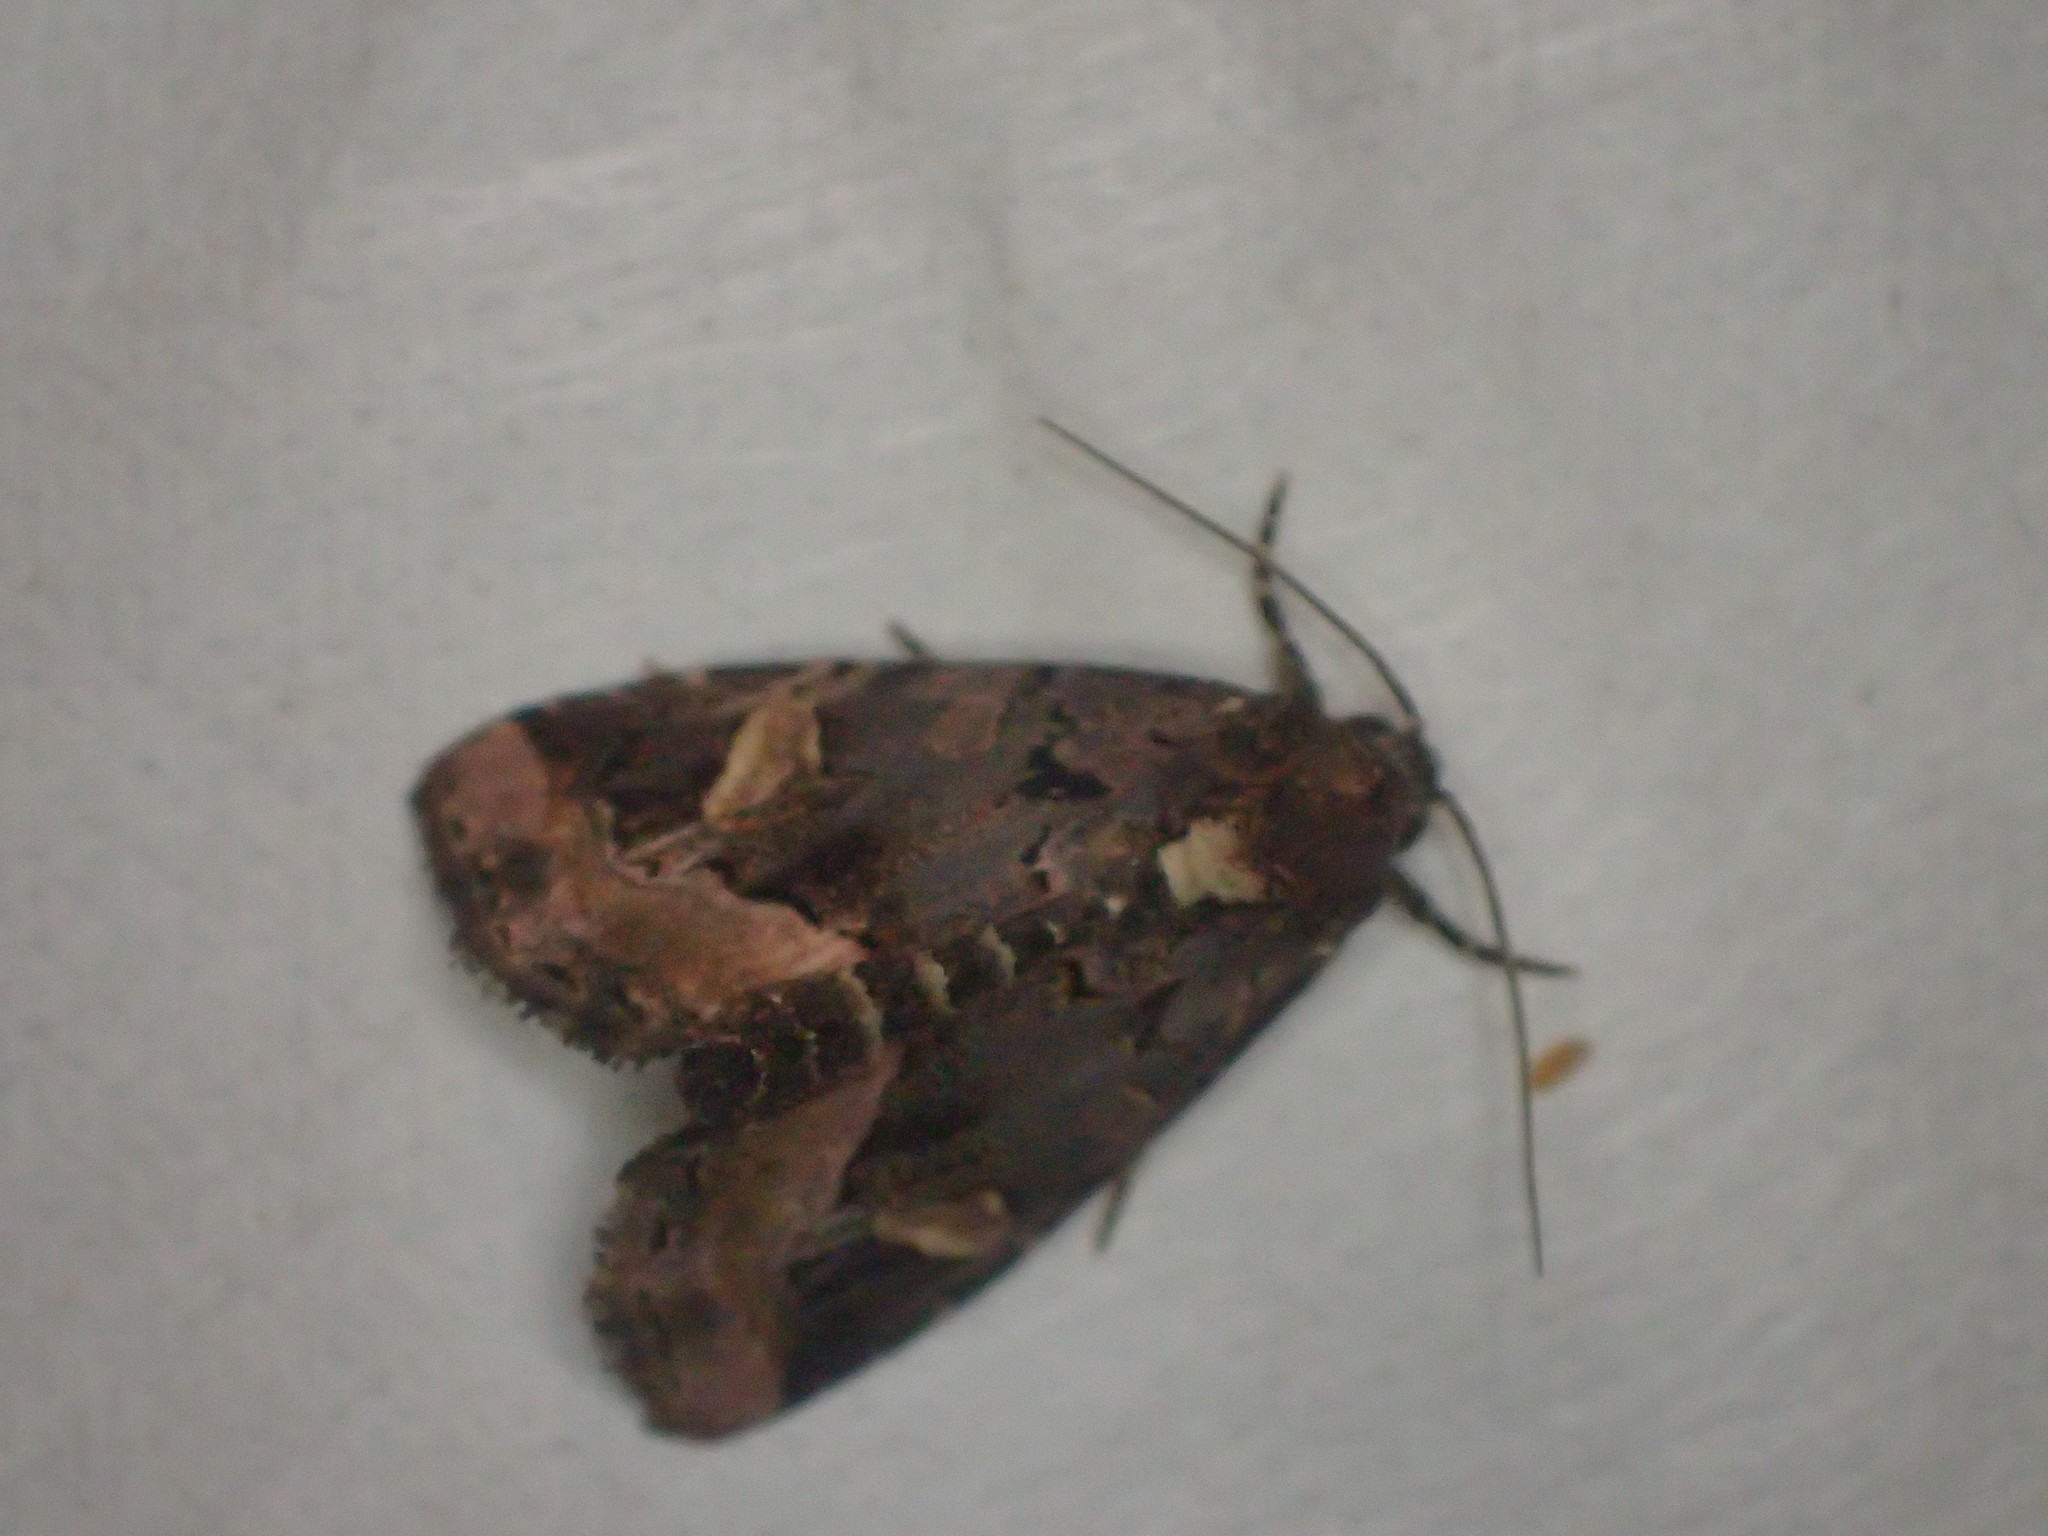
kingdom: Animalia
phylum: Arthropoda
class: Insecta
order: Lepidoptera
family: Noctuidae
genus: Homophoberia
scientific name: Homophoberia apicosa
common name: Black wedge-spot
